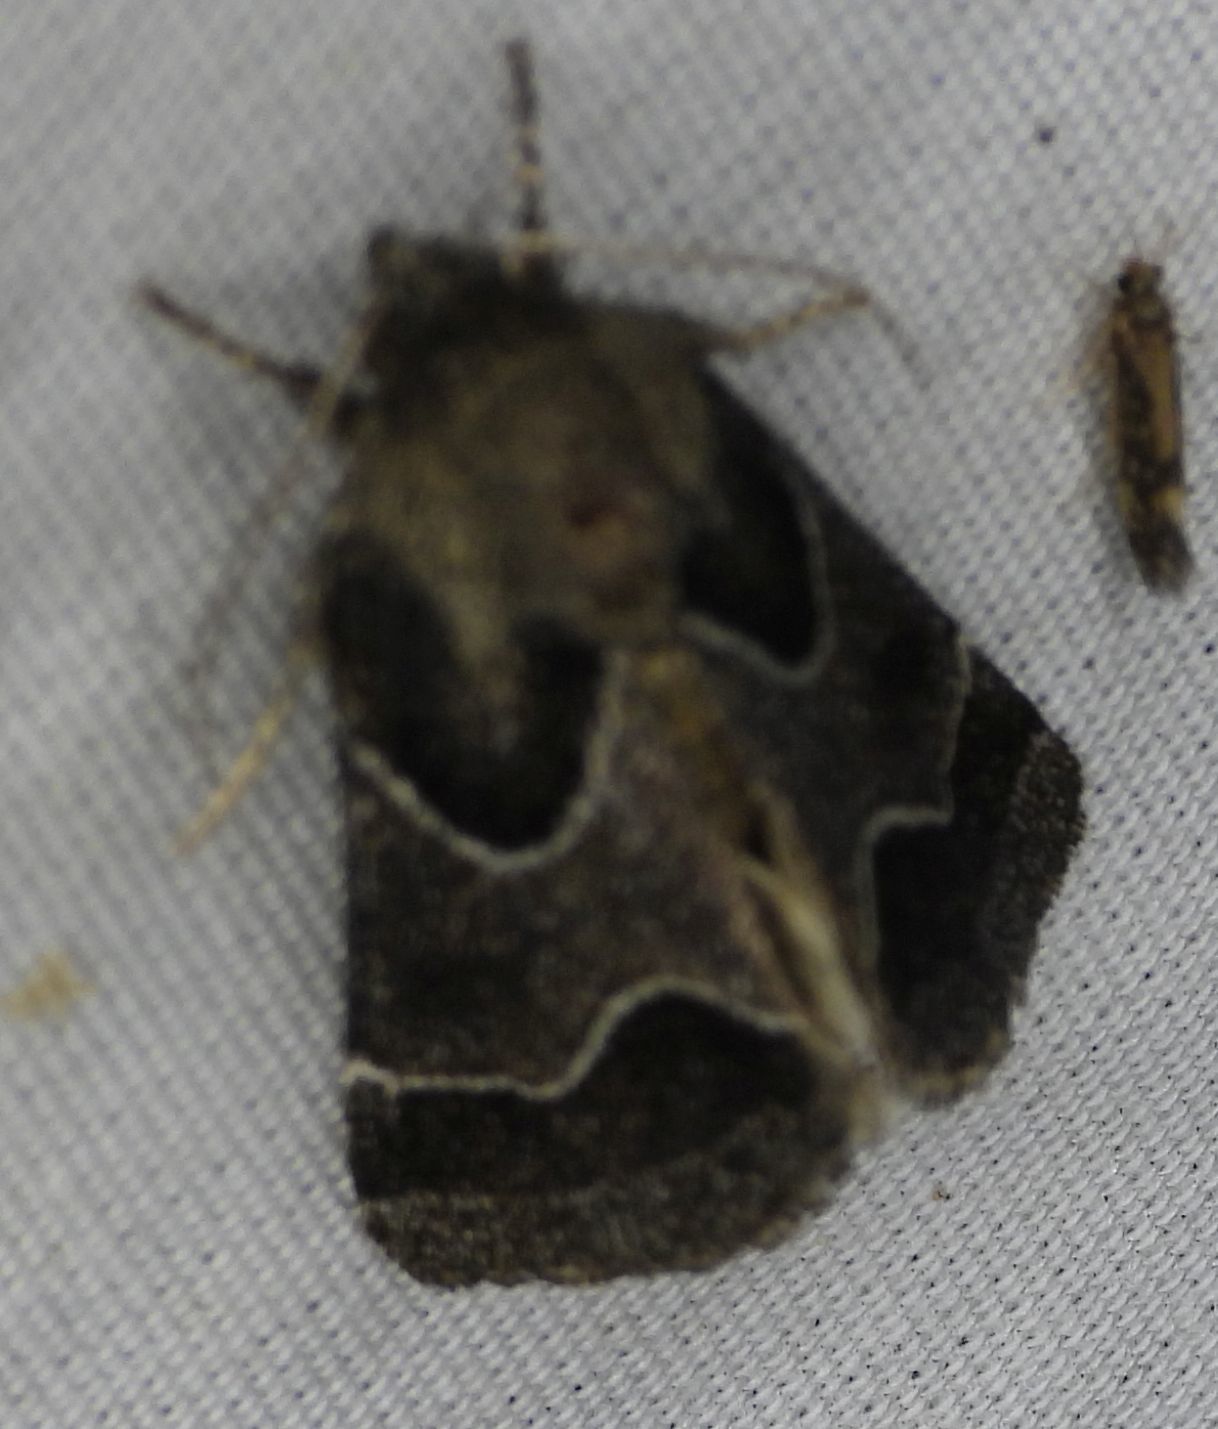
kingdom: Animalia
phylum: Arthropoda
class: Insecta
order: Lepidoptera
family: Noctuidae
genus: Schinia
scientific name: Schinia rivulosa
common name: Scarce meal-moth
